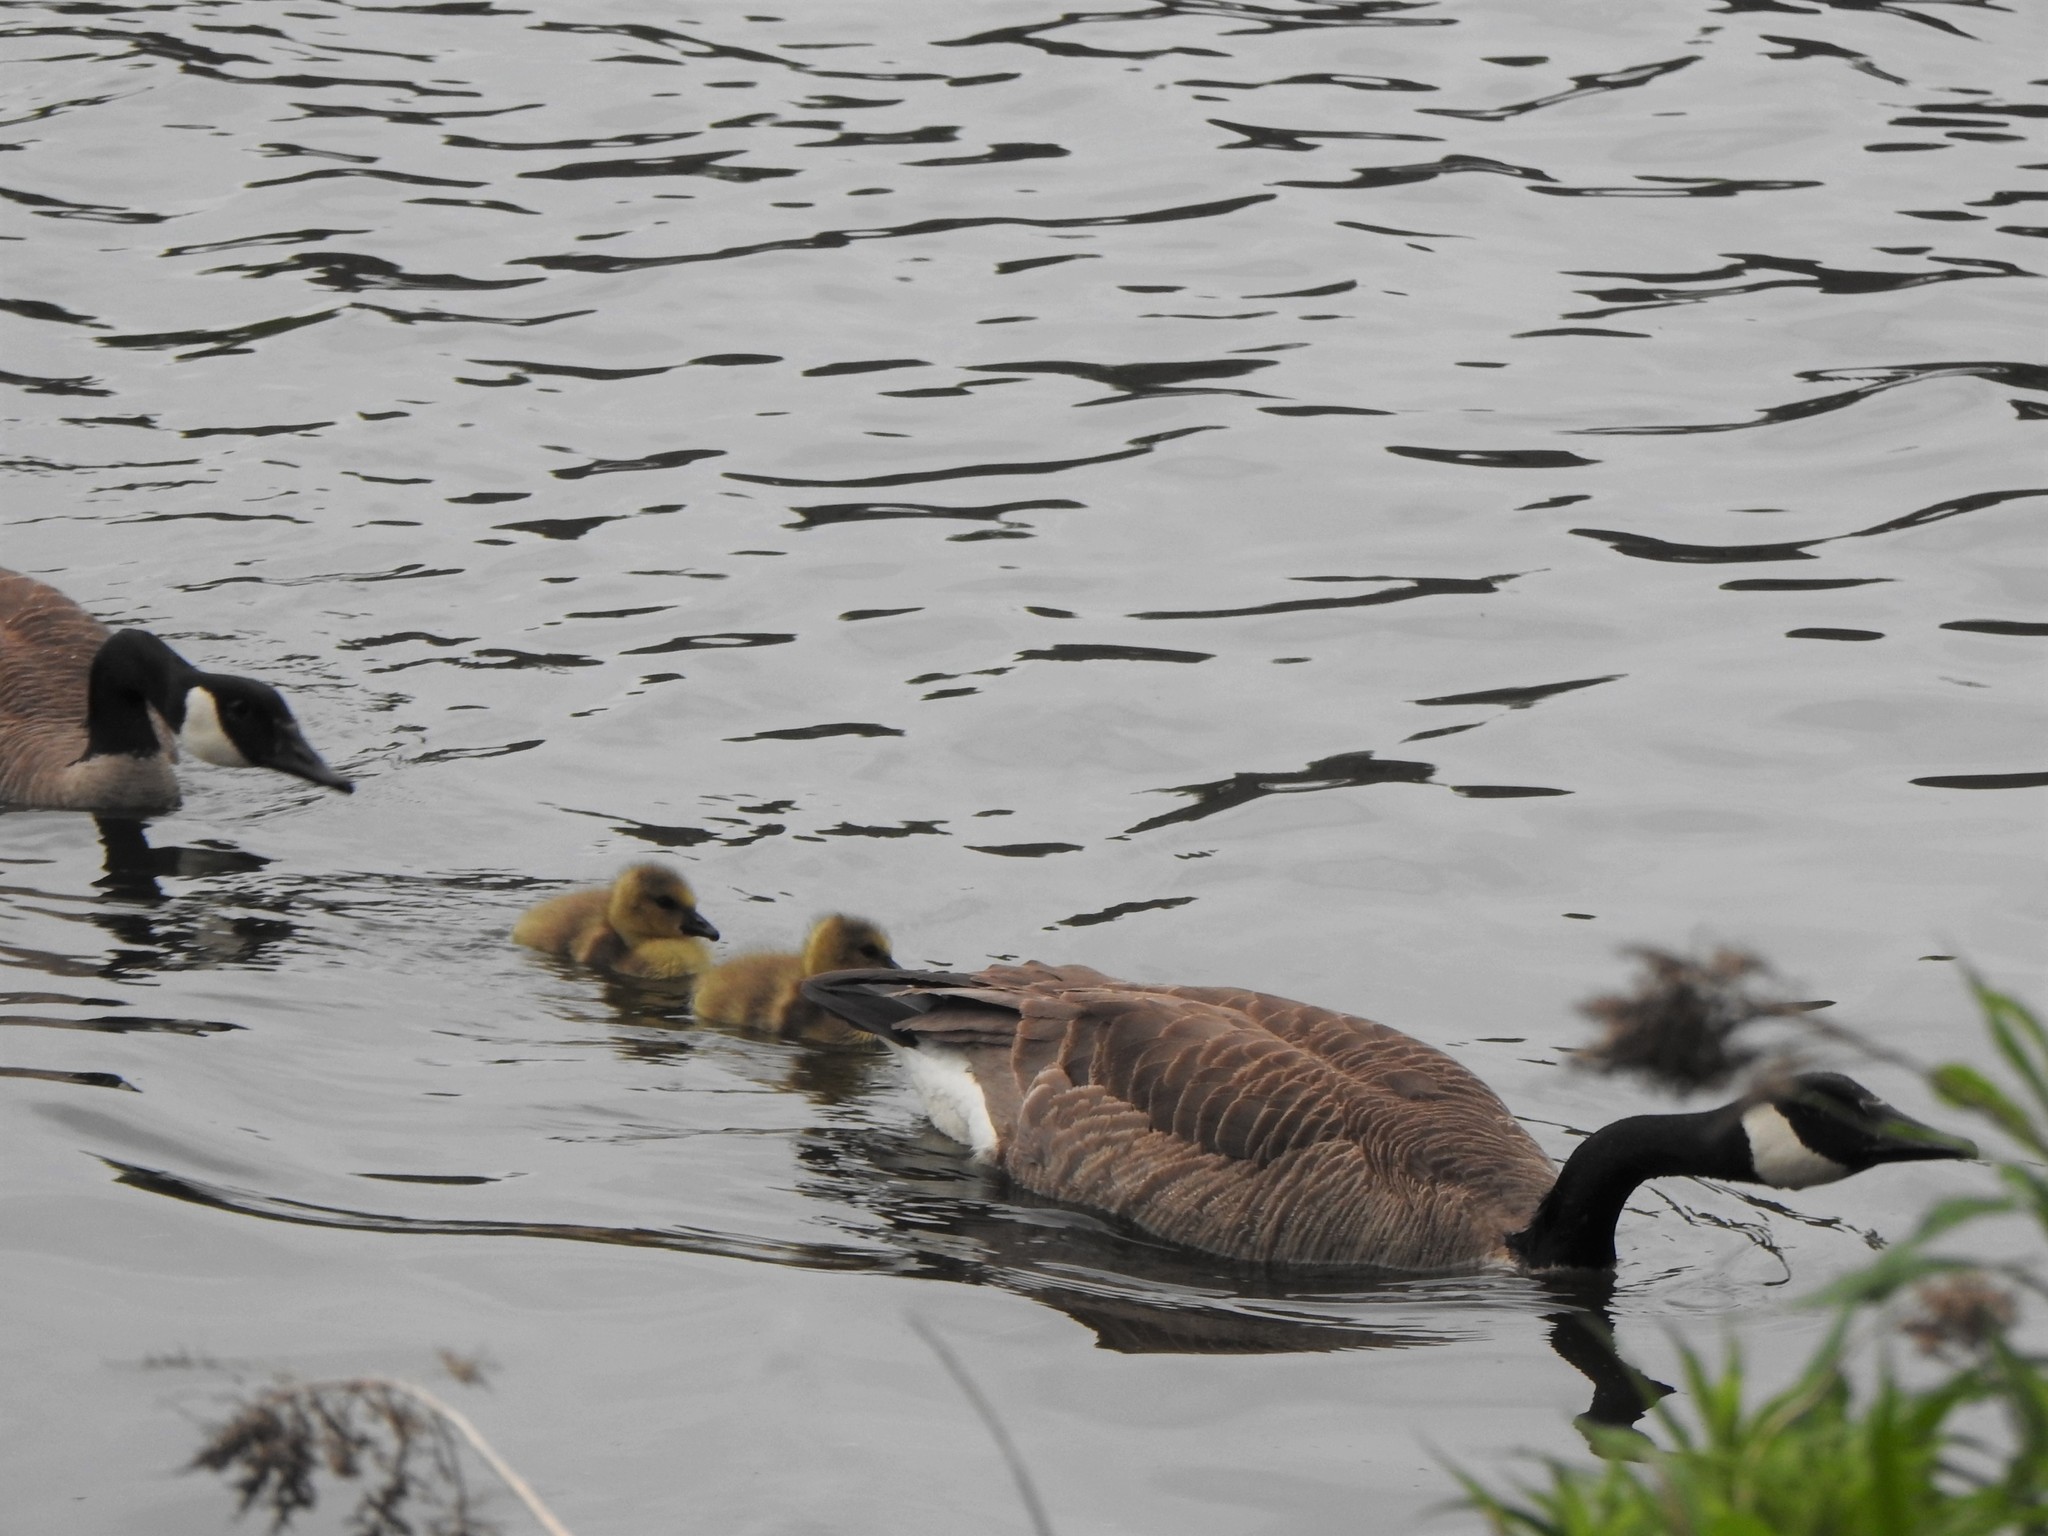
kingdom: Animalia
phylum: Chordata
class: Aves
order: Anseriformes
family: Anatidae
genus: Branta
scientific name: Branta canadensis
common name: Canada goose
